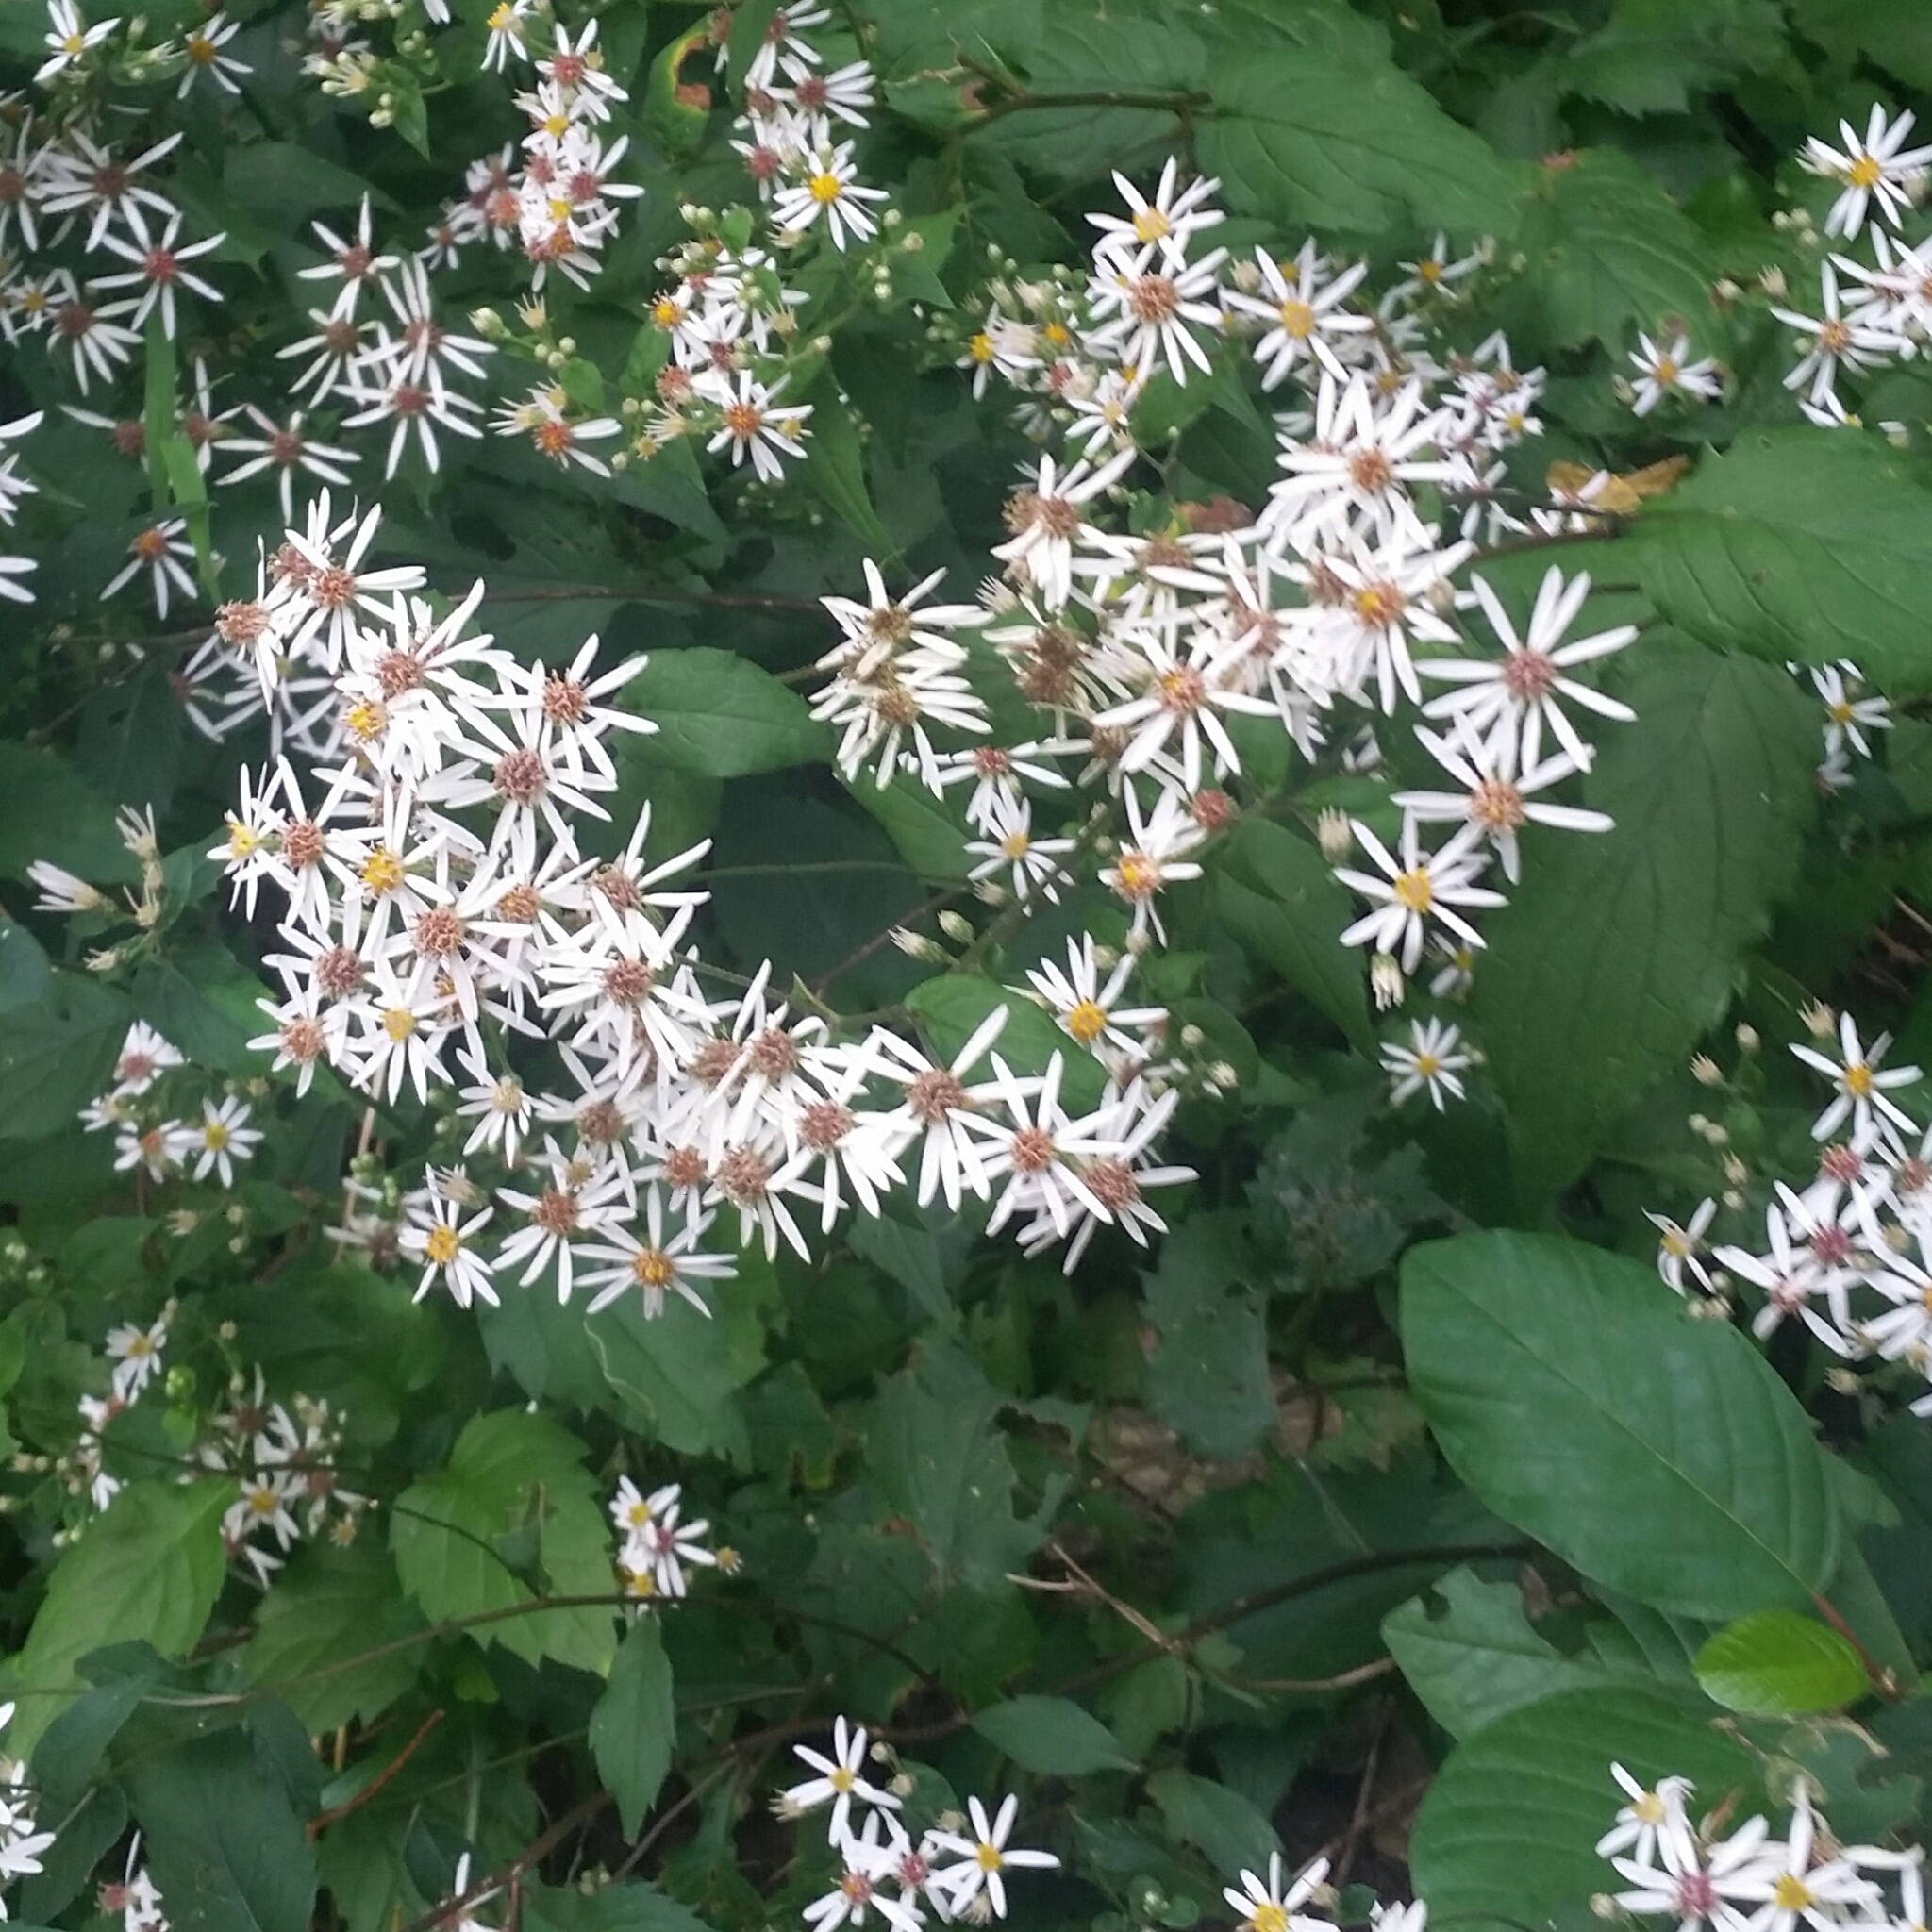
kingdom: Plantae
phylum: Tracheophyta
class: Magnoliopsida
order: Asterales
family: Asteraceae
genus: Eurybia
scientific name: Eurybia divaricata
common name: White wood aster
